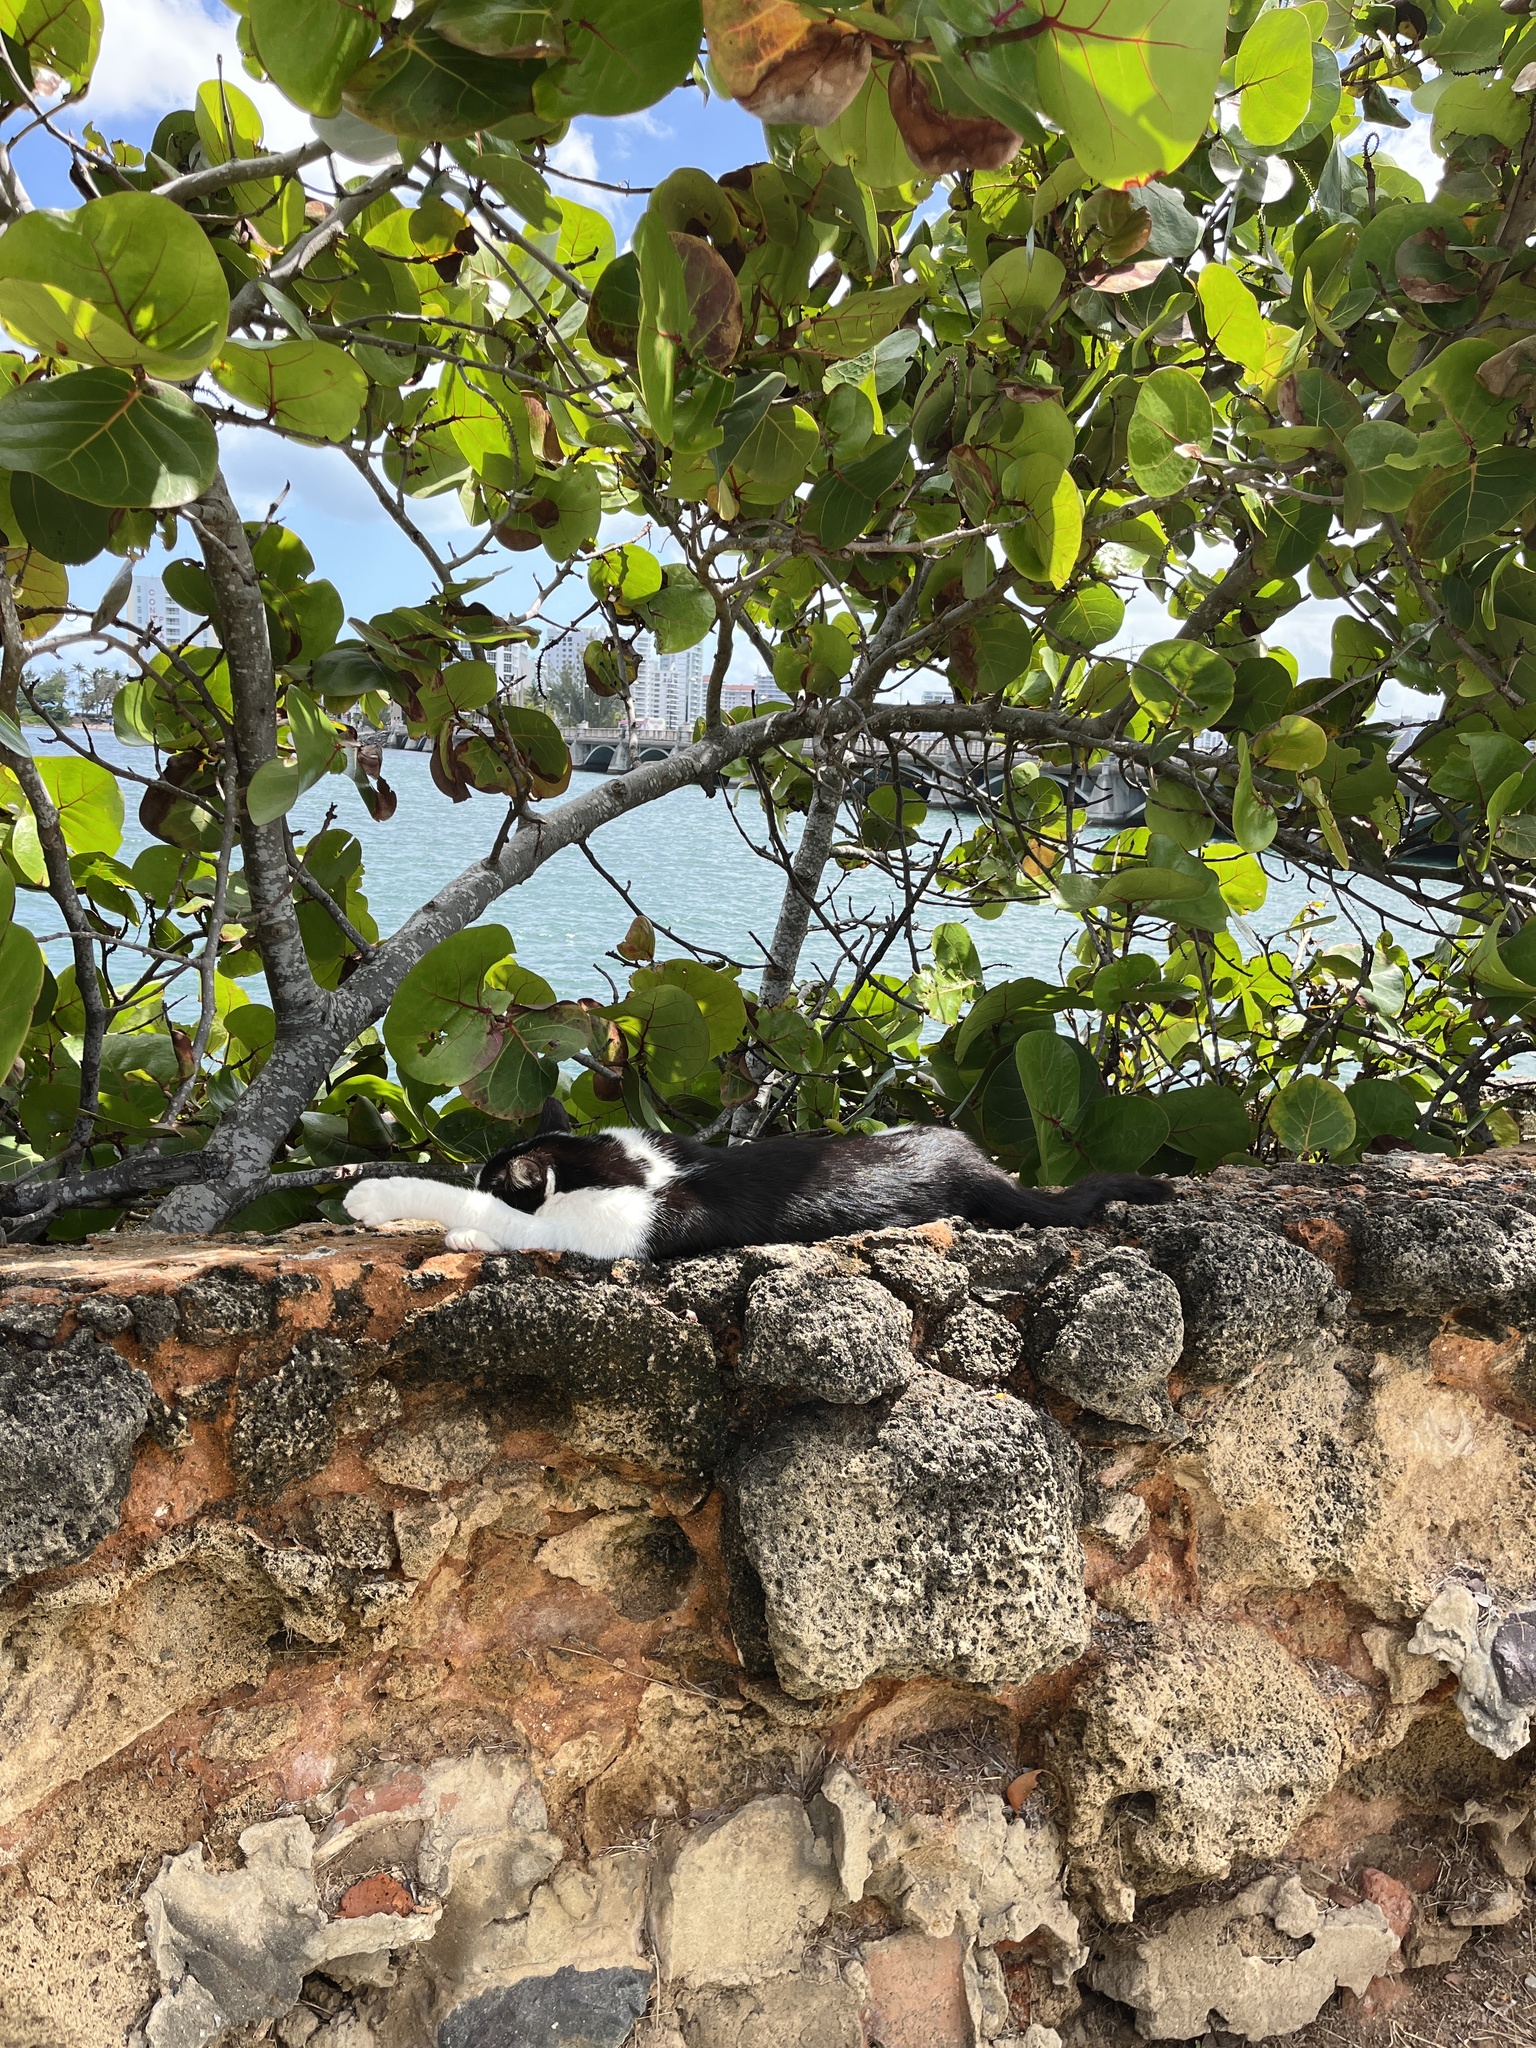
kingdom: Animalia
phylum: Chordata
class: Mammalia
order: Carnivora
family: Felidae
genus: Felis
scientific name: Felis catus
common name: Domestic cat
